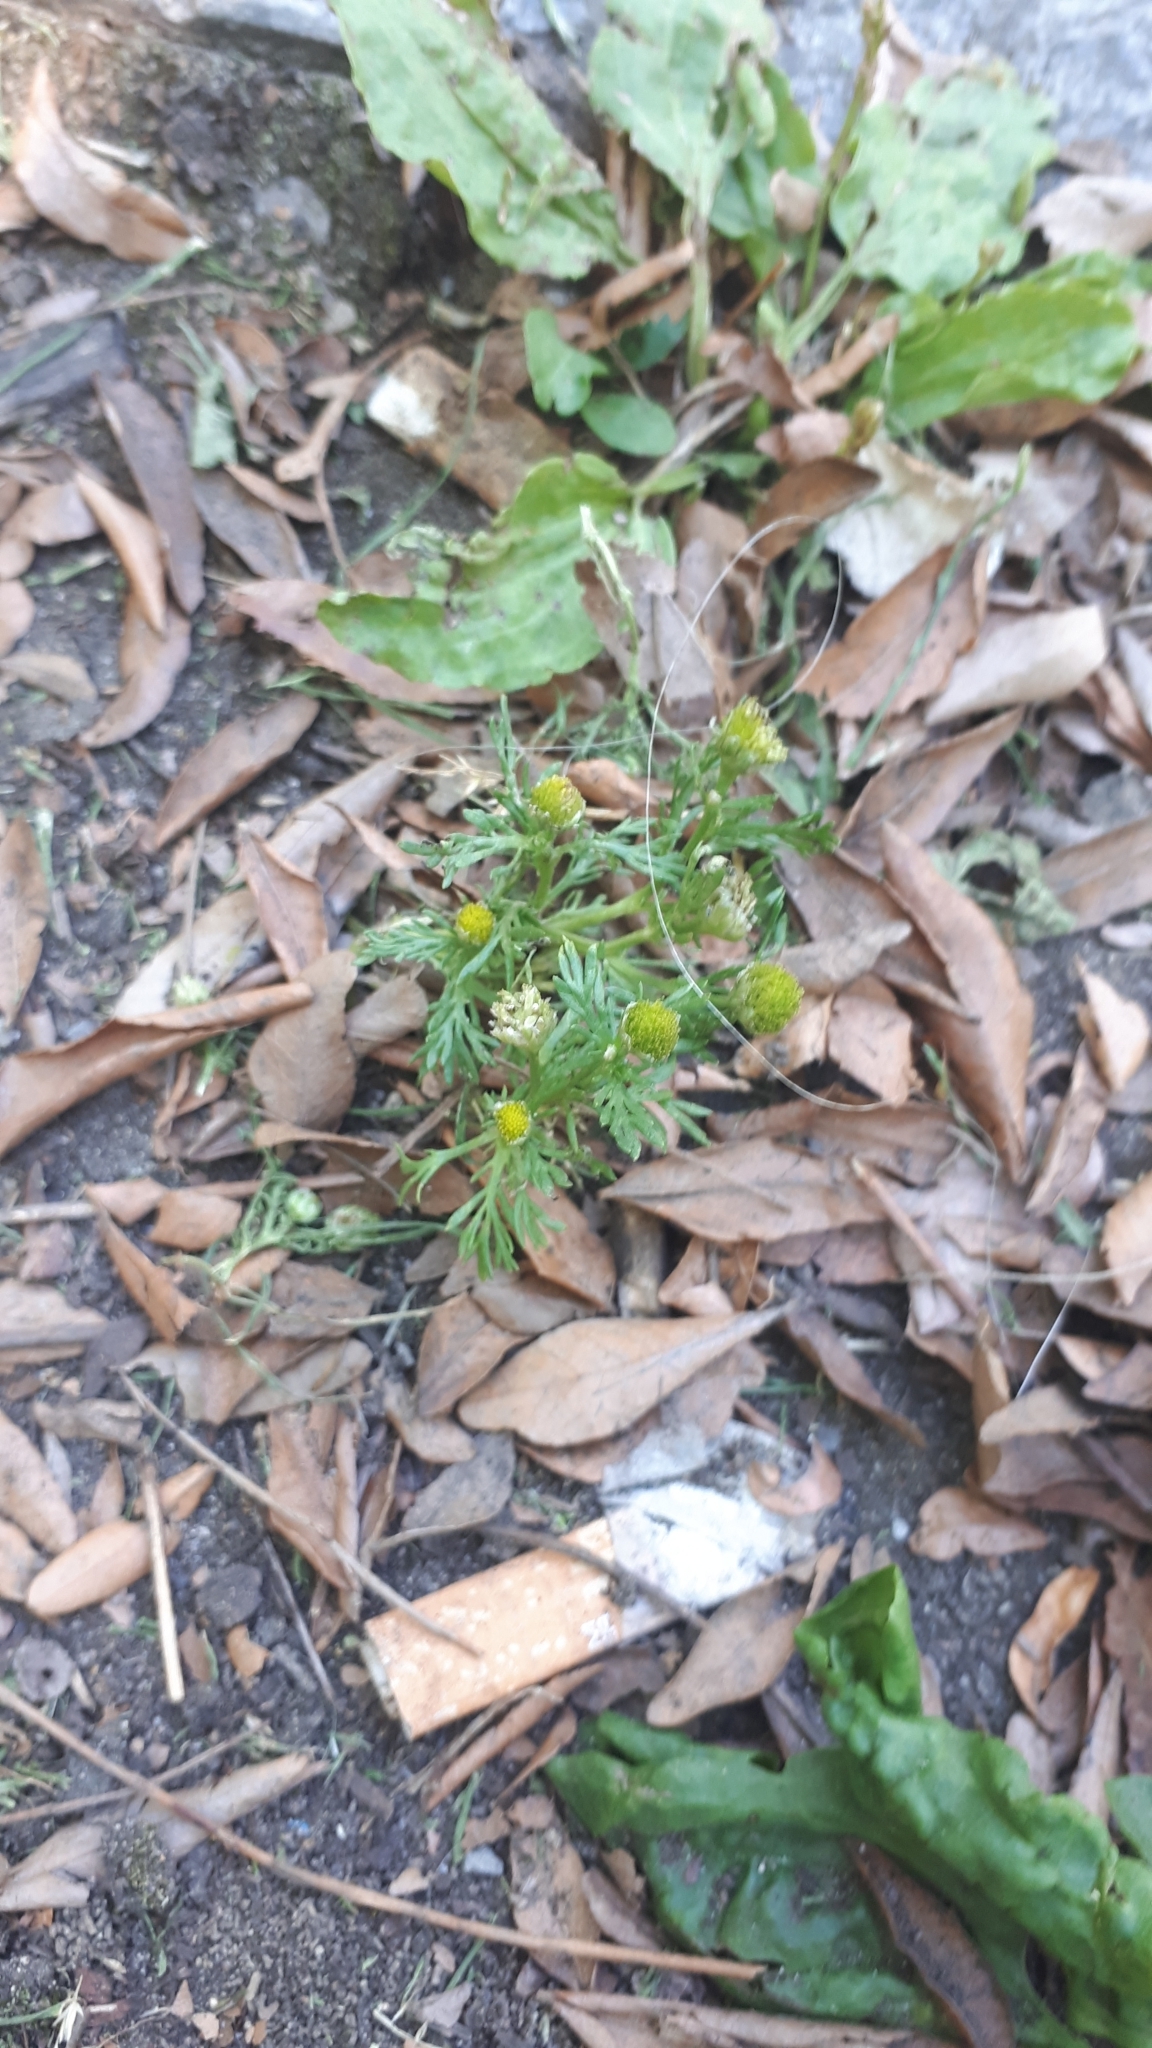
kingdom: Plantae
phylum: Tracheophyta
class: Magnoliopsida
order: Asterales
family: Asteraceae
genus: Matricaria
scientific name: Matricaria discoidea
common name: Disc mayweed
